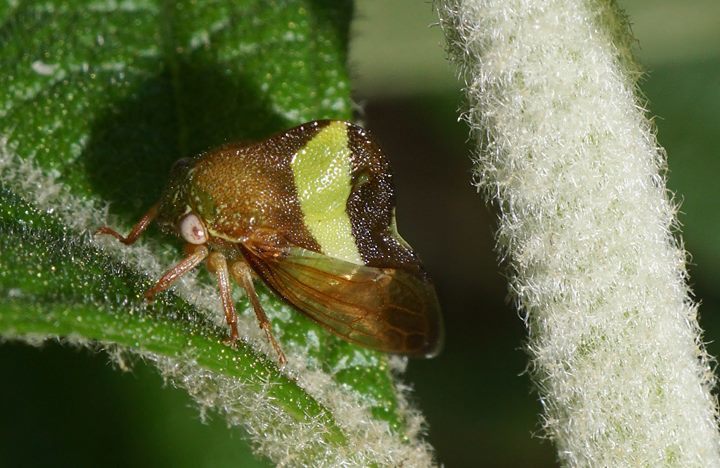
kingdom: Animalia
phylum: Arthropoda
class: Insecta
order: Hemiptera
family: Membracidae
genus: Smilia
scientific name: Smilia fasciata
